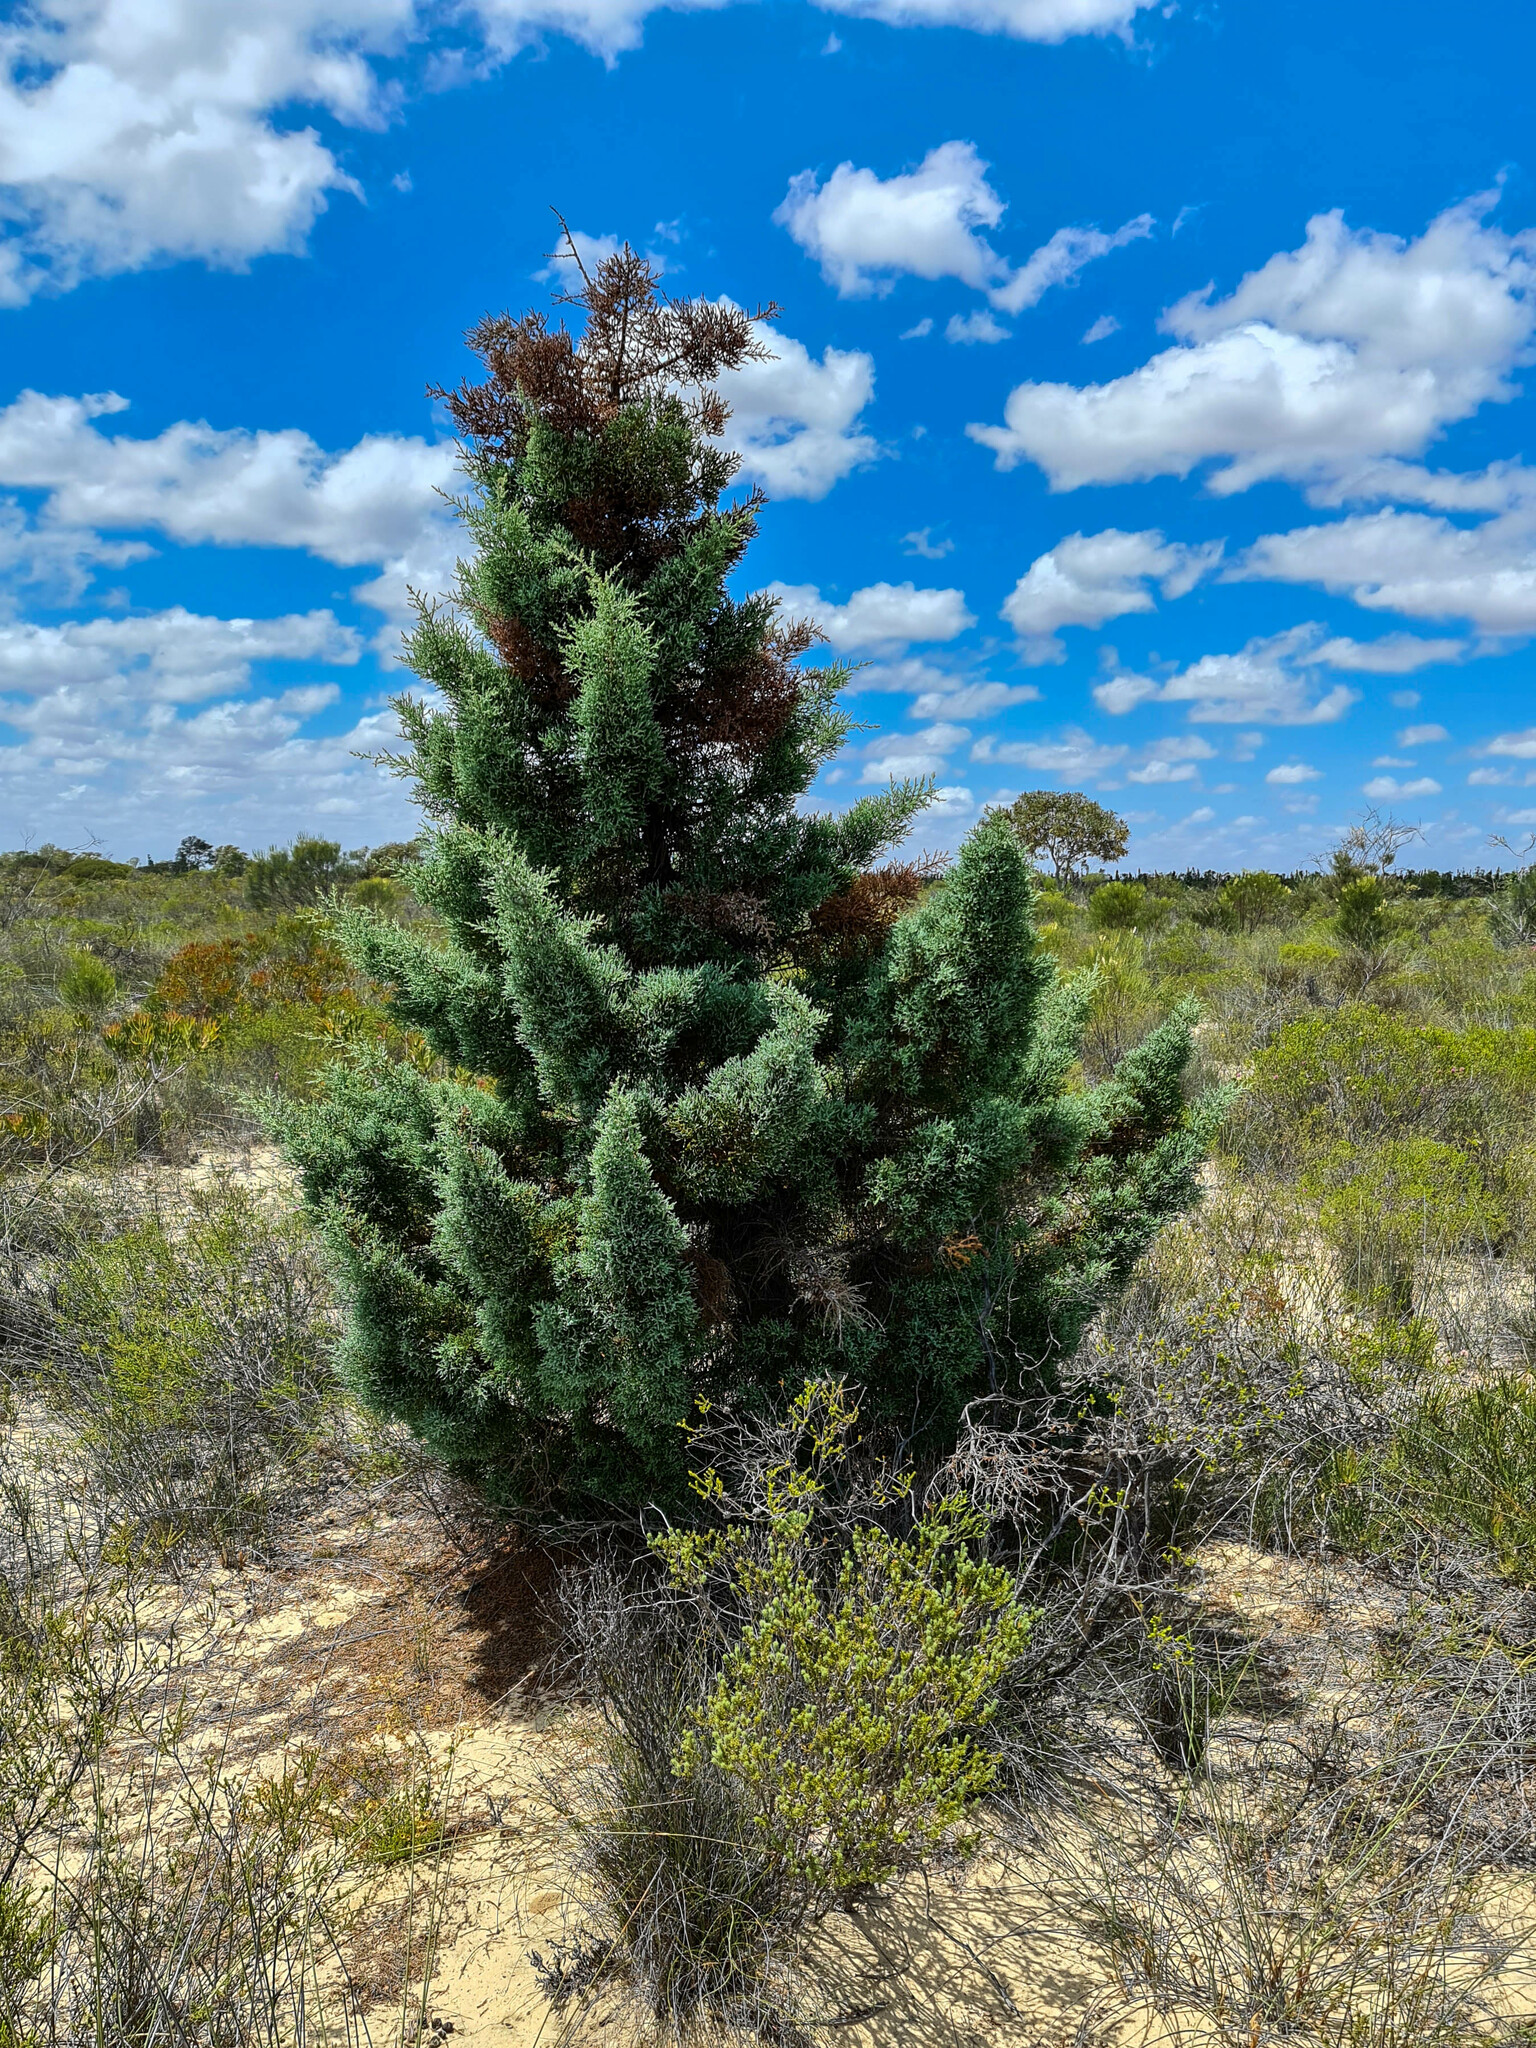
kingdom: Plantae
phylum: Tracheophyta
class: Pinopsida
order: Pinales
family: Cupressaceae
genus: Actinostrobus
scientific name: Actinostrobus arenarius
